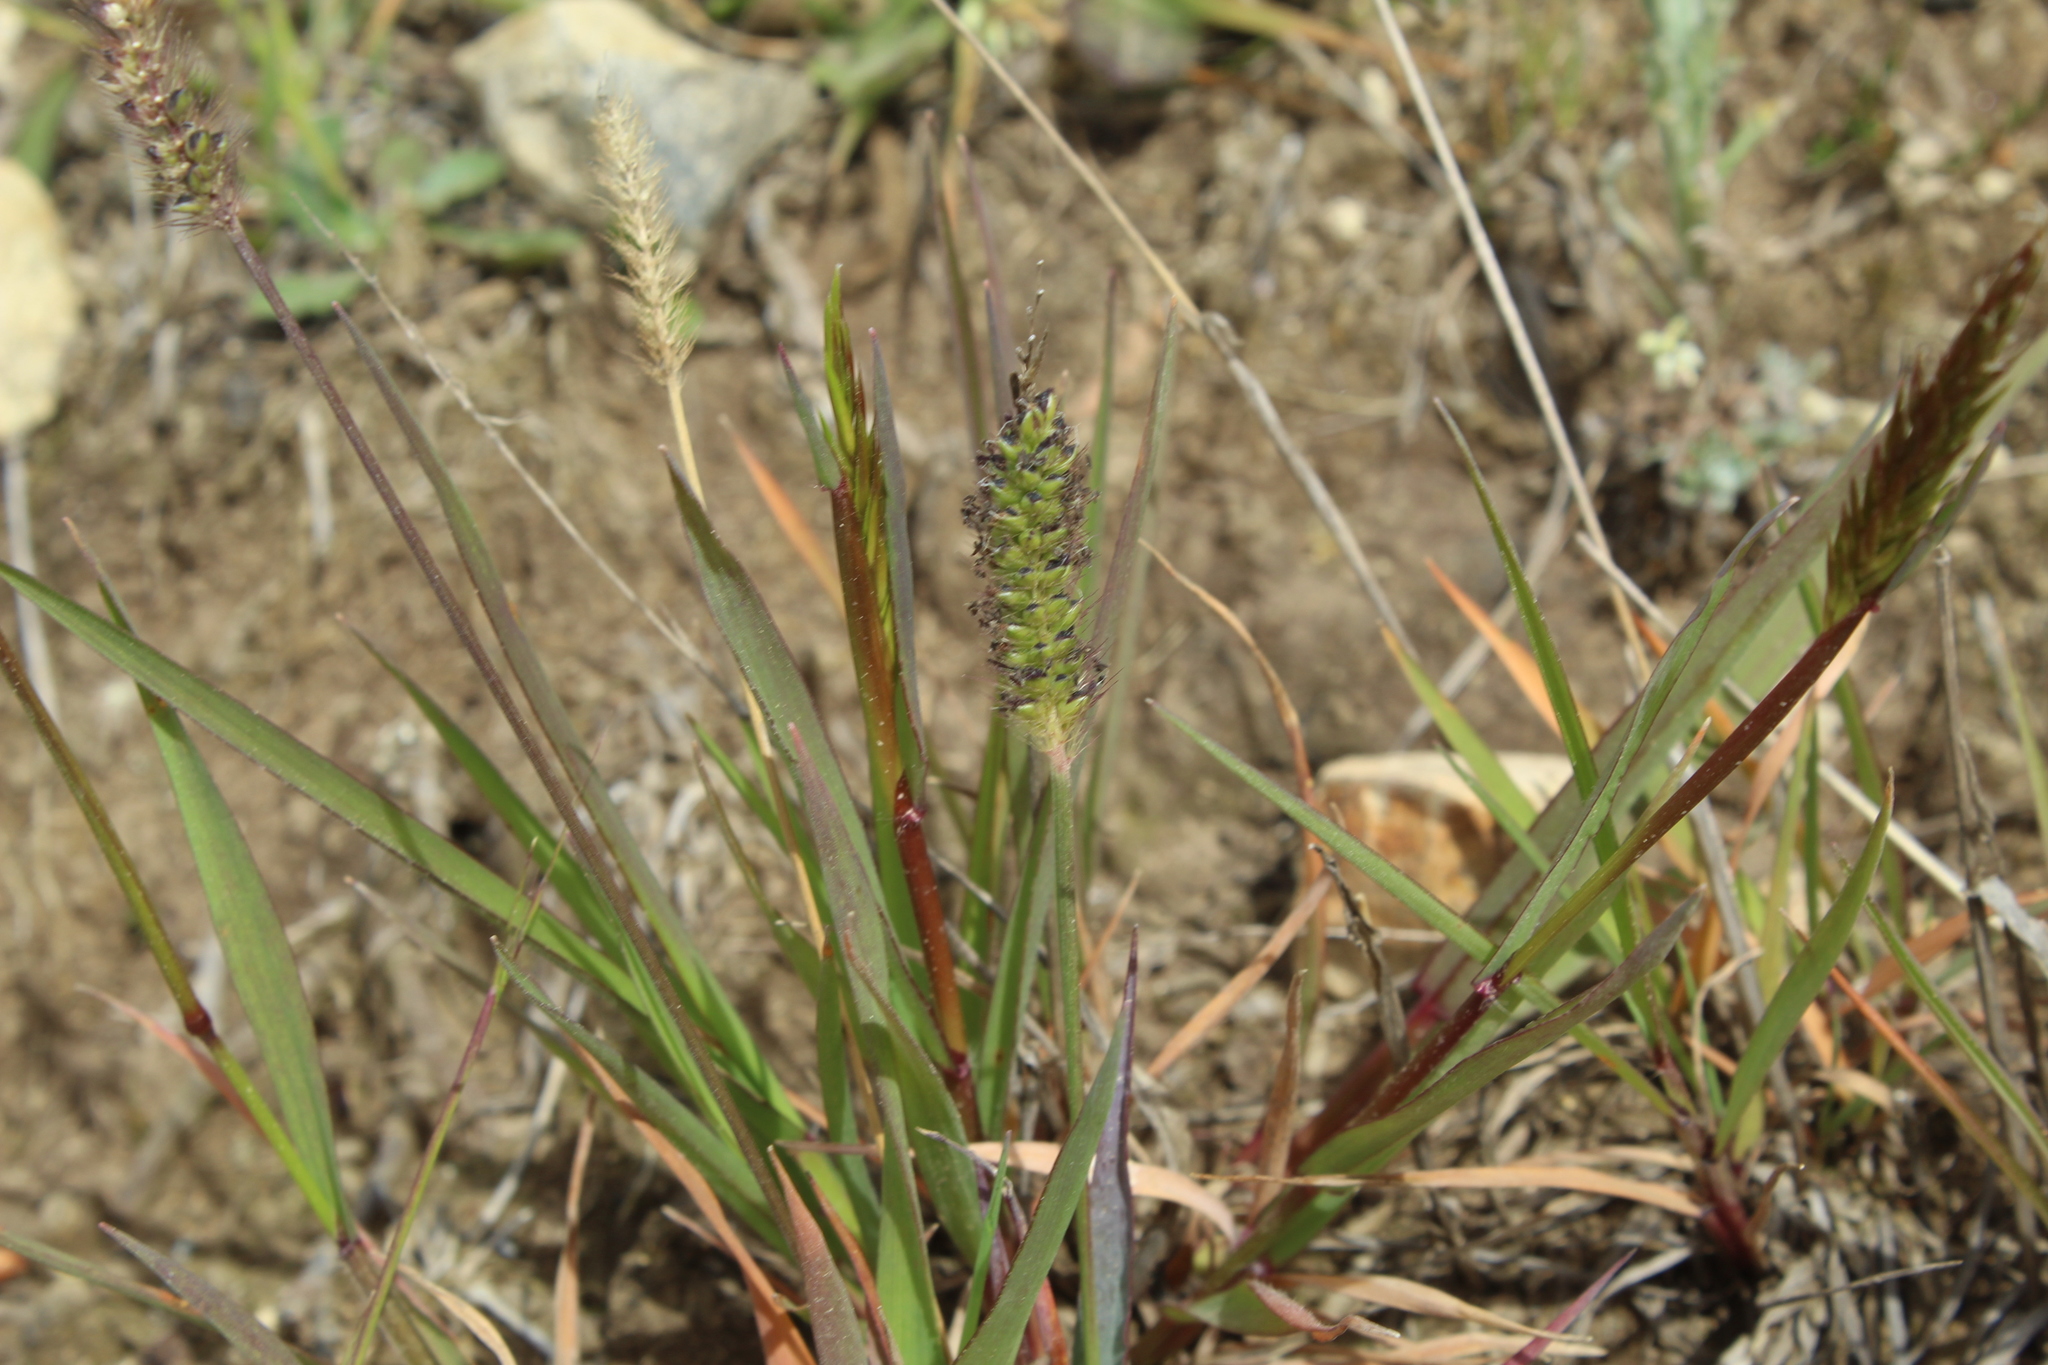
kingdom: Plantae
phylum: Tracheophyta
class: Liliopsida
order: Poales
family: Poaceae
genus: Setaria
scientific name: Setaria parviflora
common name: Knotroot bristle-grass
